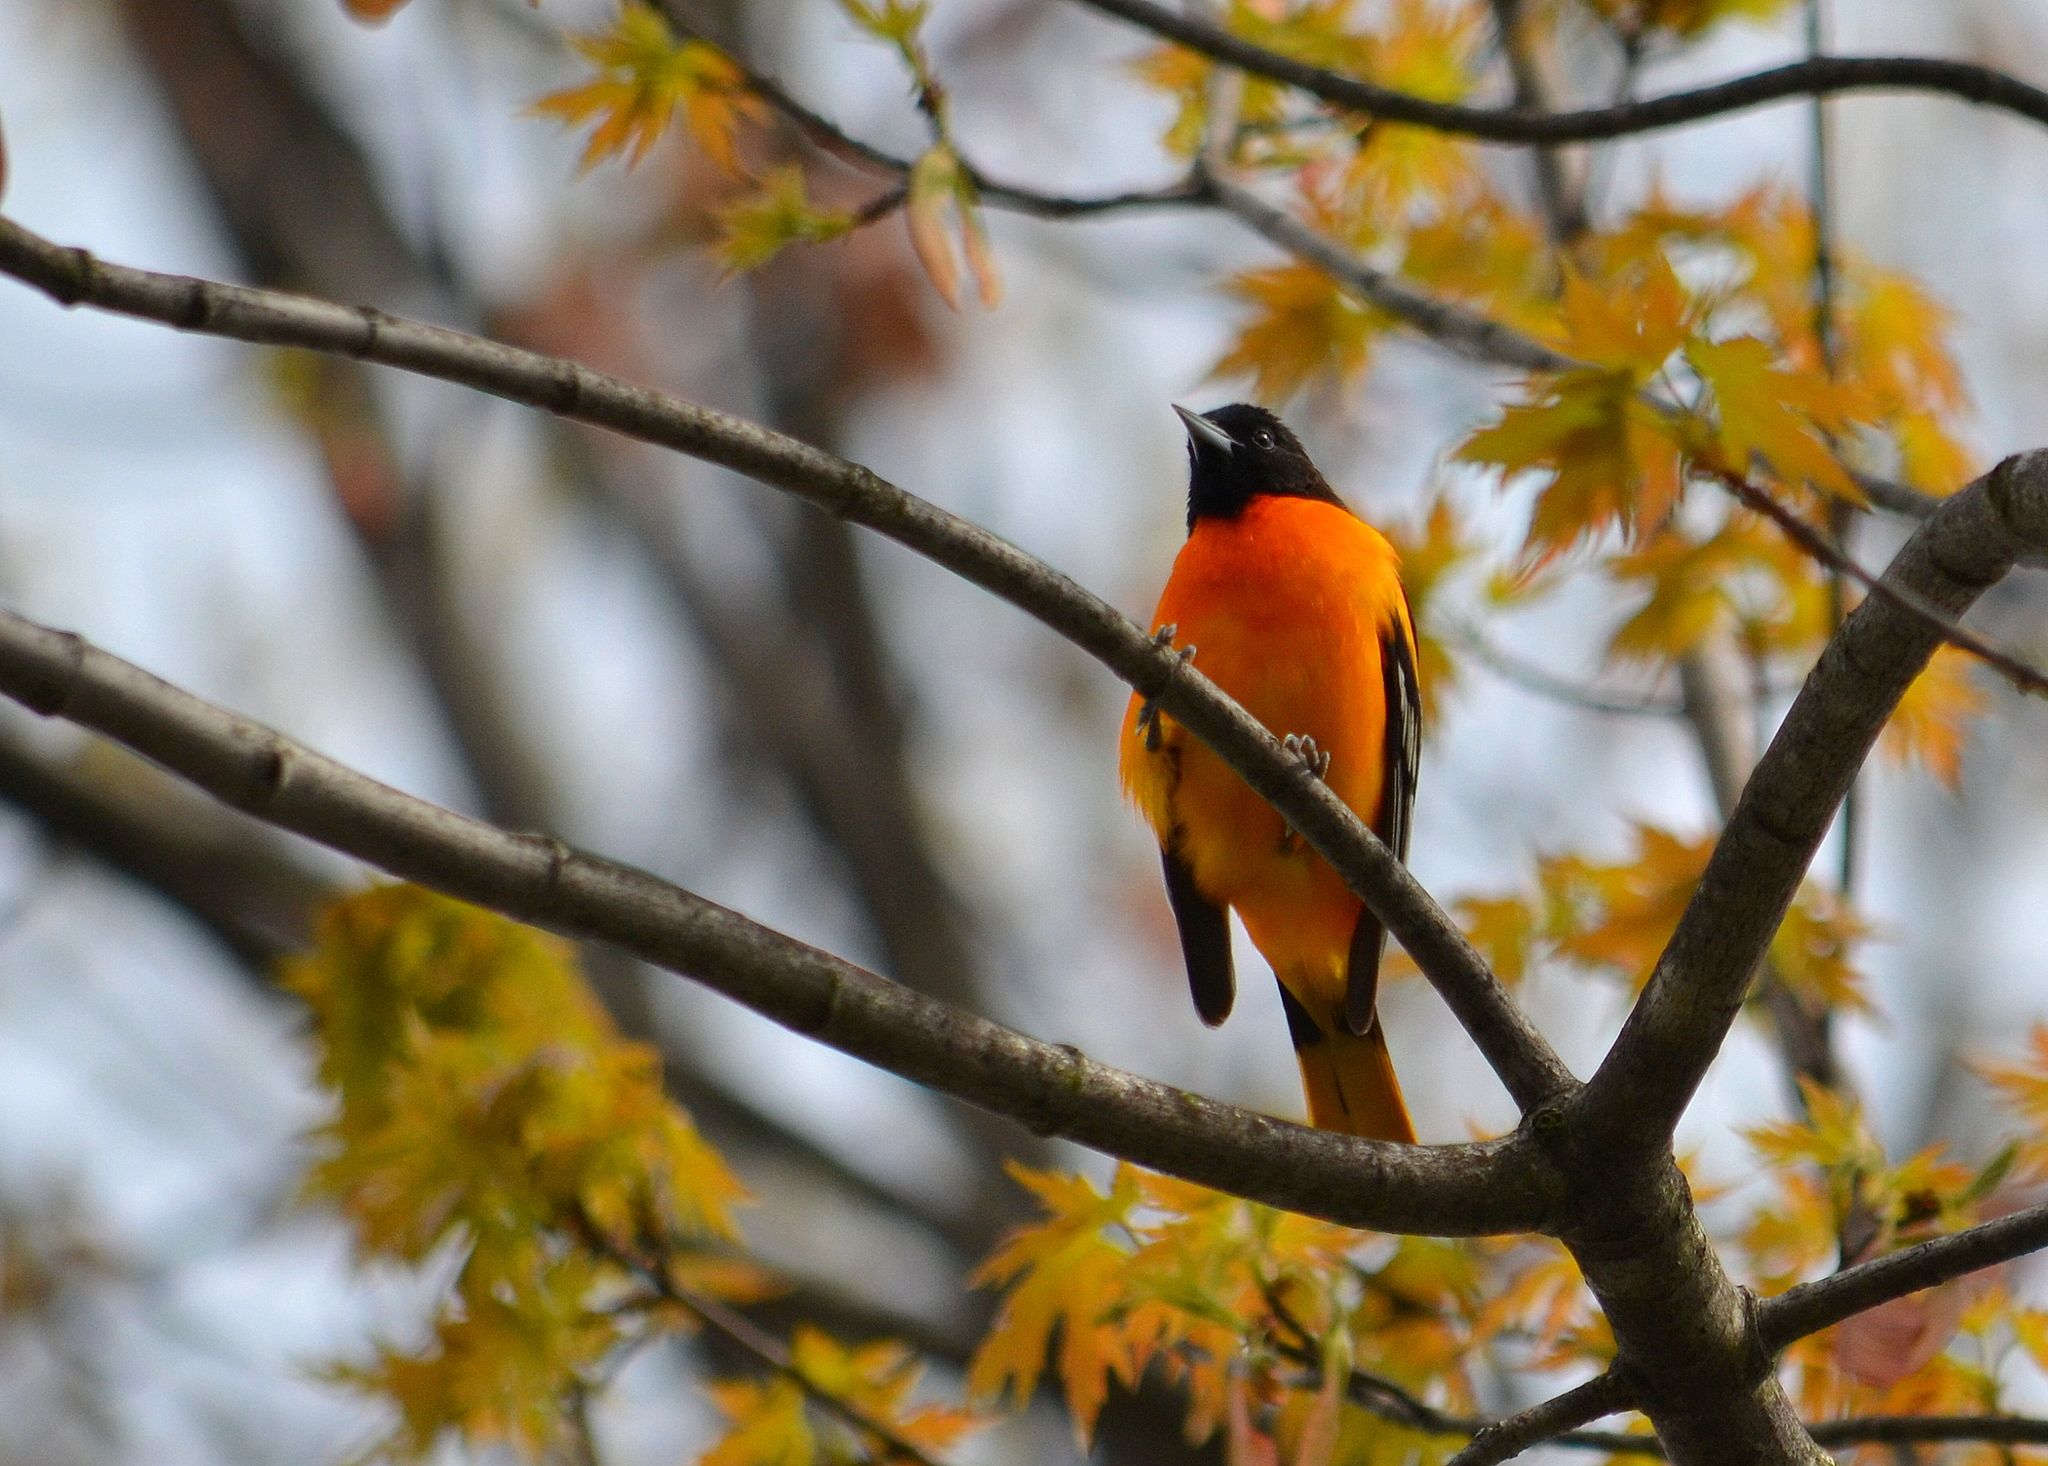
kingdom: Animalia
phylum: Chordata
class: Aves
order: Passeriformes
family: Icteridae
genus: Icterus
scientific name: Icterus galbula
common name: Baltimore oriole
